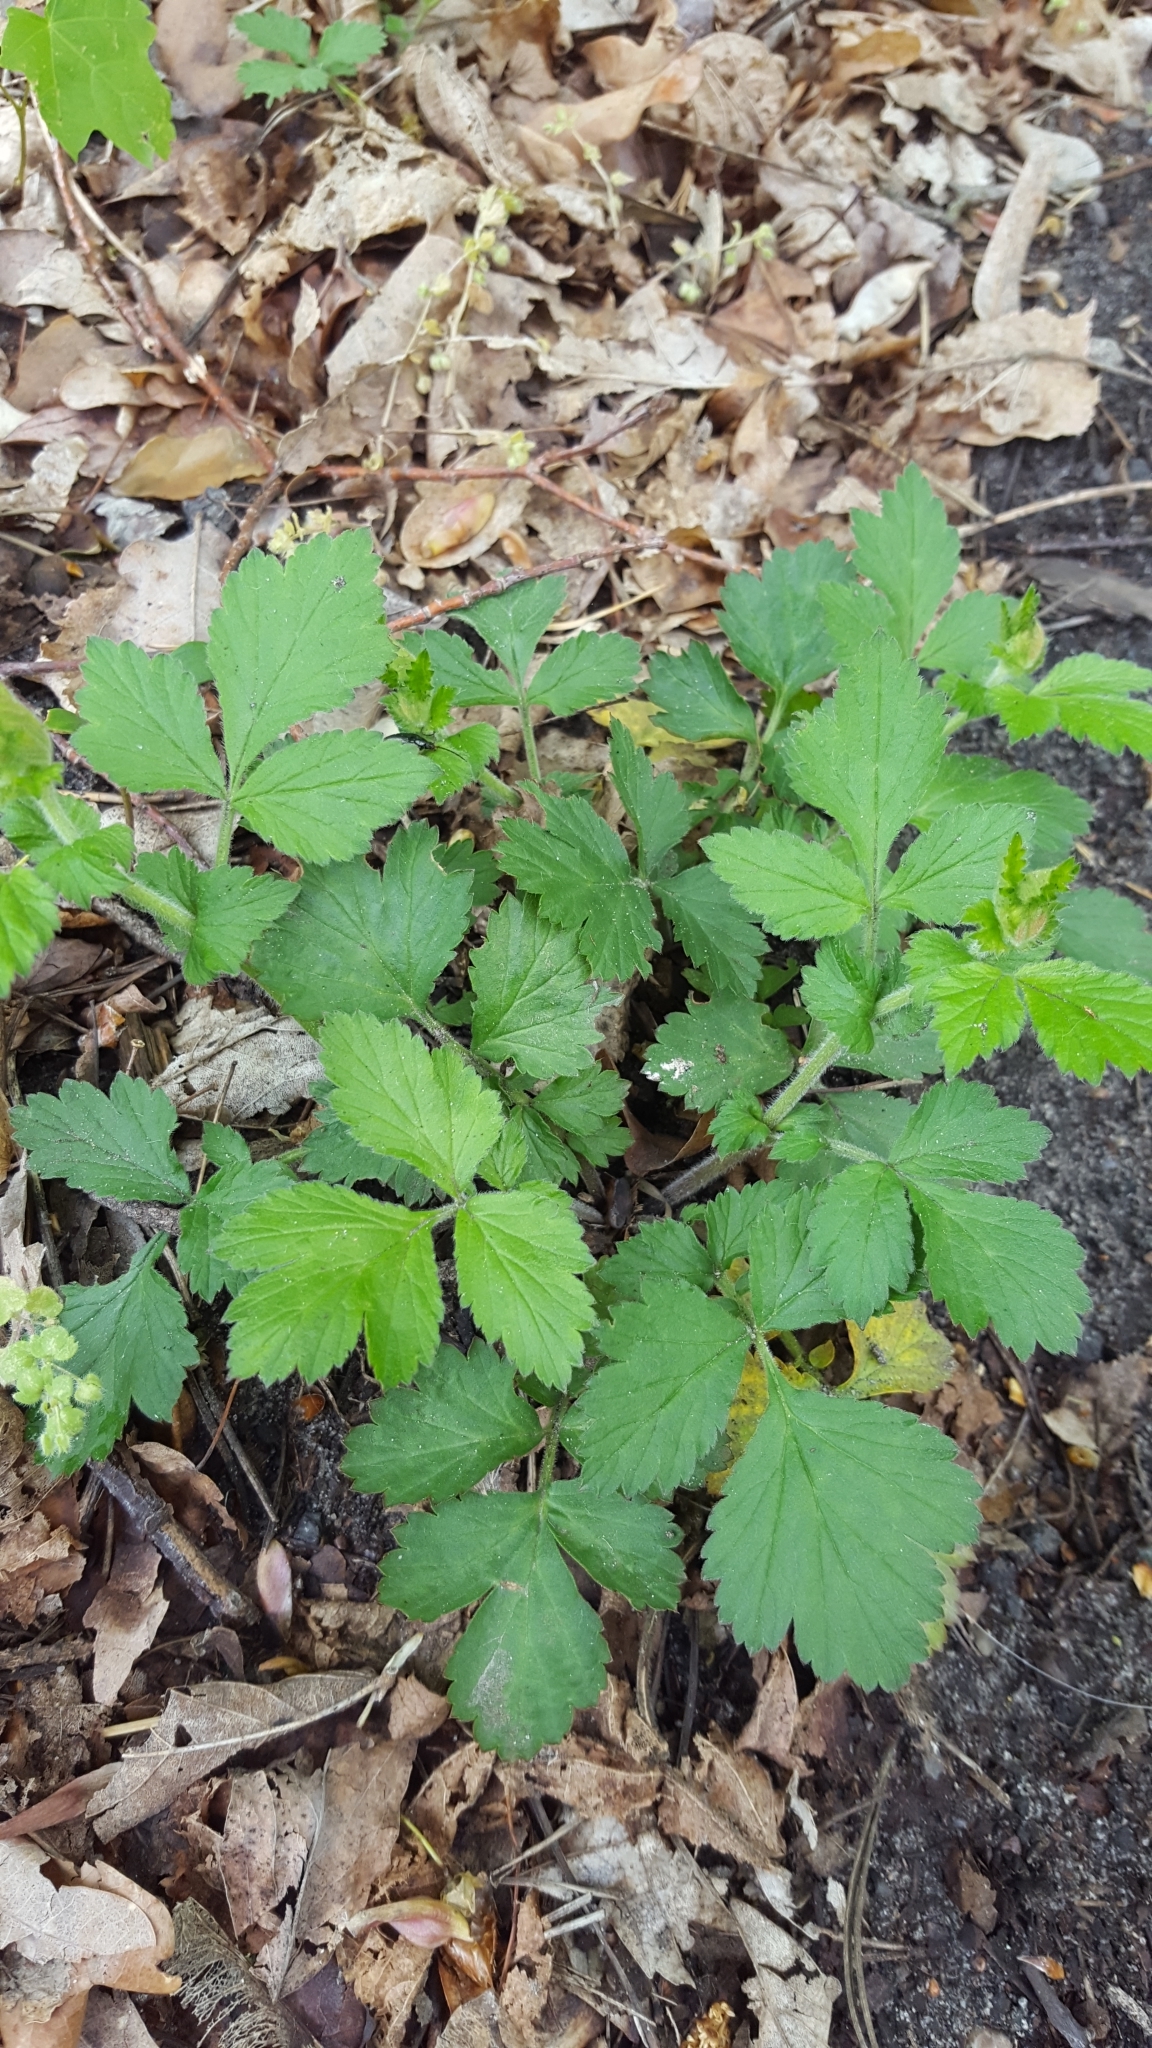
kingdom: Plantae
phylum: Tracheophyta
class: Magnoliopsida
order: Rosales
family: Rosaceae
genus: Geum
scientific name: Geum urbanum
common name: Wood avens
